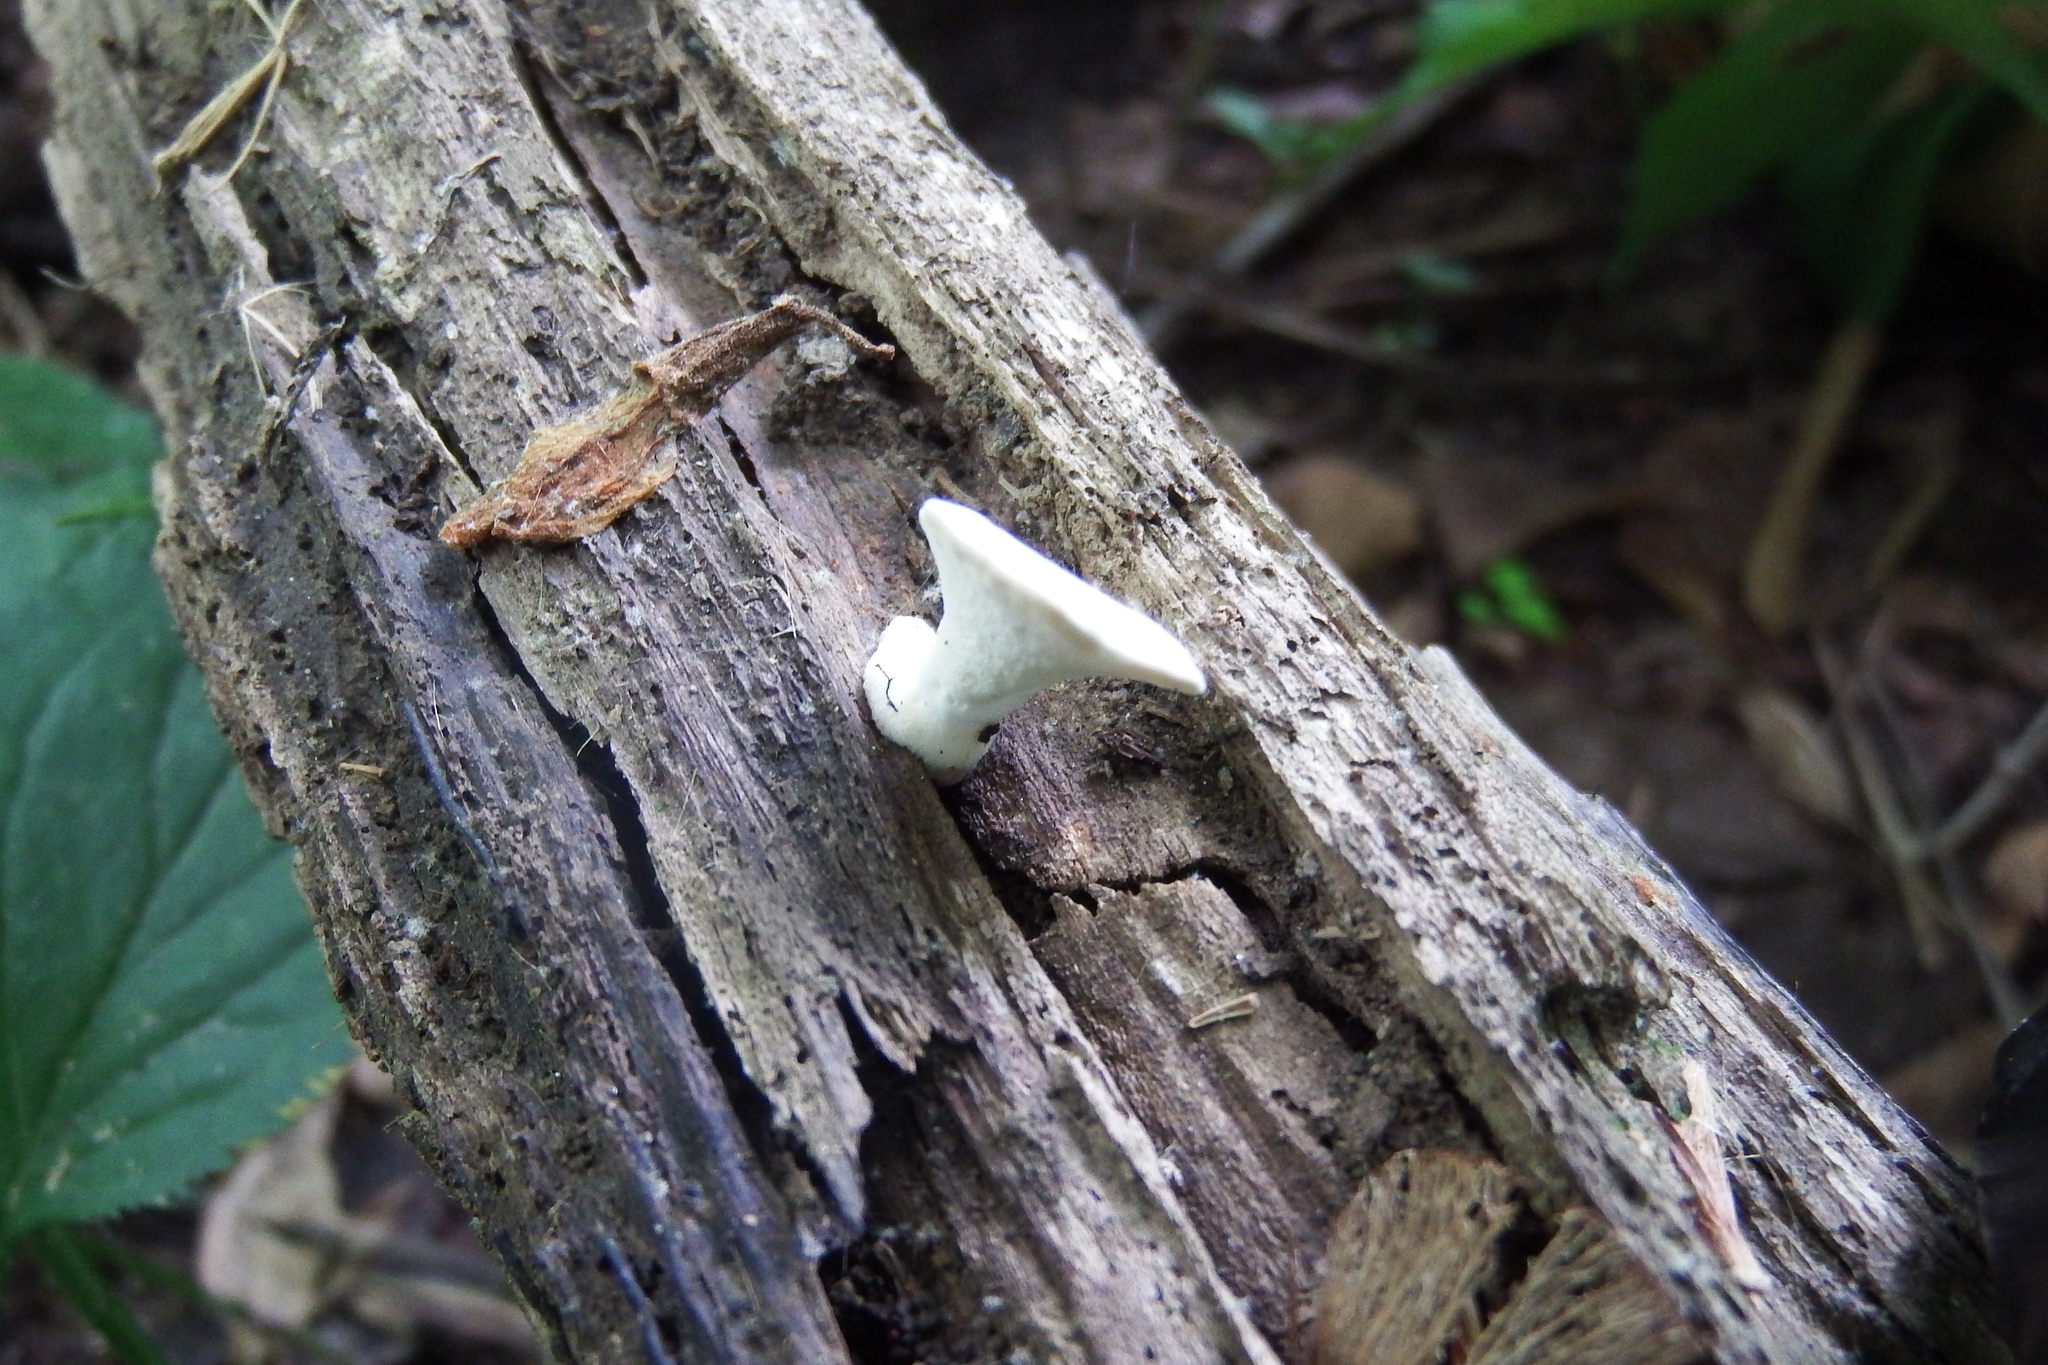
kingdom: Fungi
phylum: Basidiomycota
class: Agaricomycetes
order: Polyporales
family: Steccherinaceae
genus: Loweomyces
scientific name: Loweomyces fractipes
